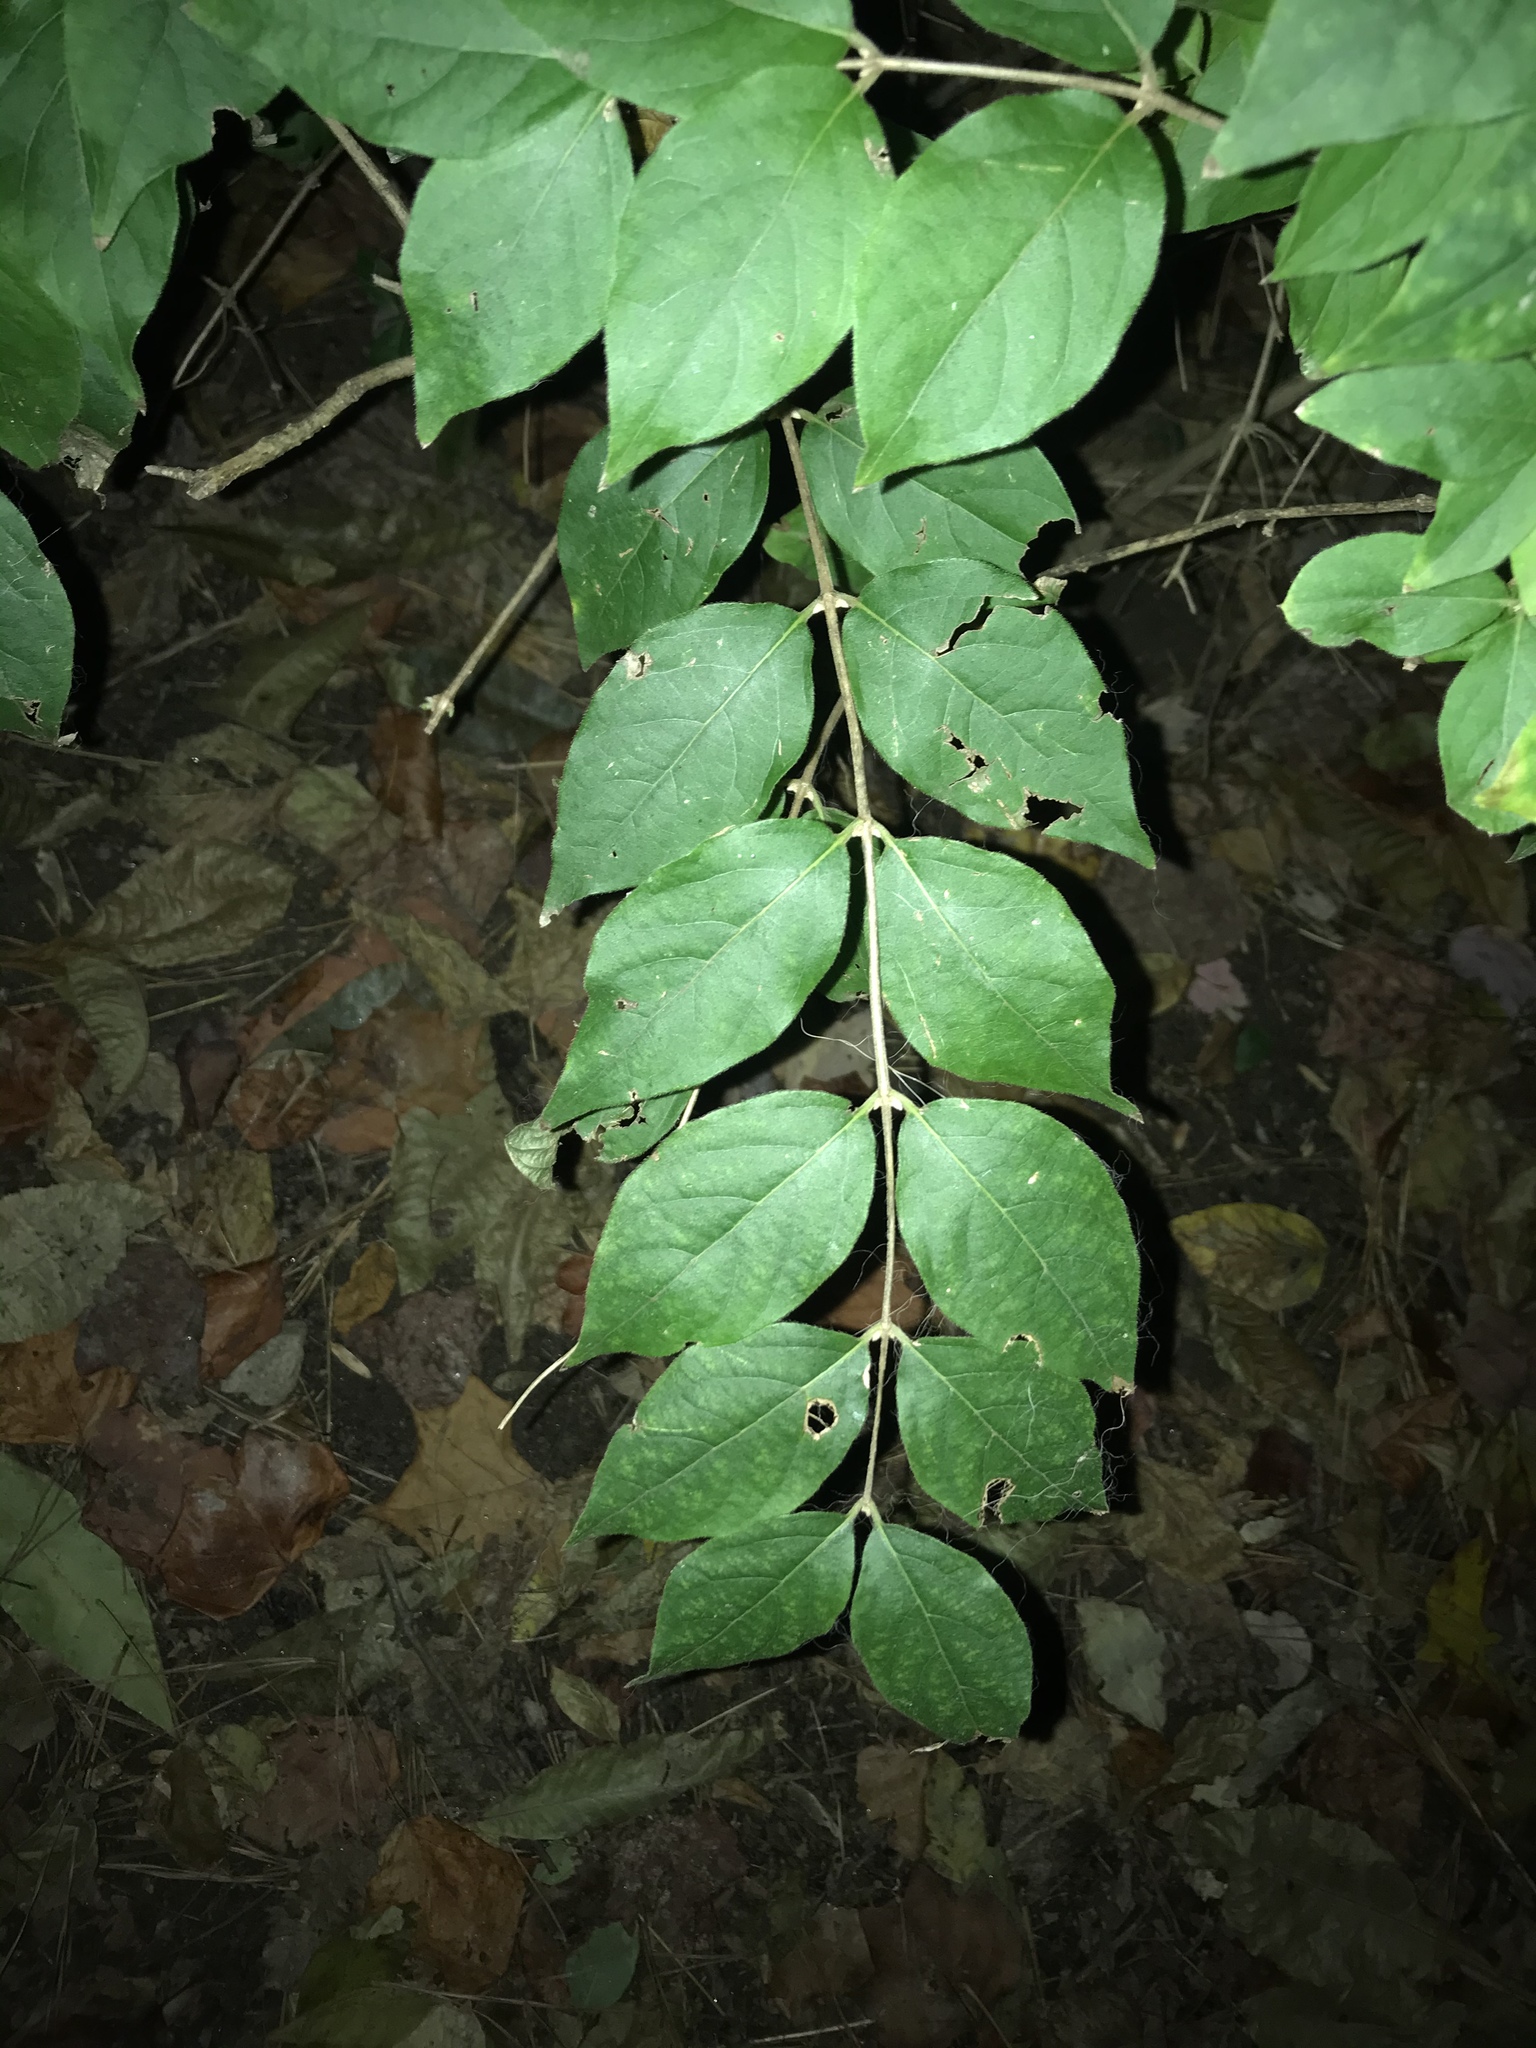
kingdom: Plantae
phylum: Tracheophyta
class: Magnoliopsida
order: Dipsacales
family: Caprifoliaceae
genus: Lonicera
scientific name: Lonicera maackii
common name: Amur honeysuckle
